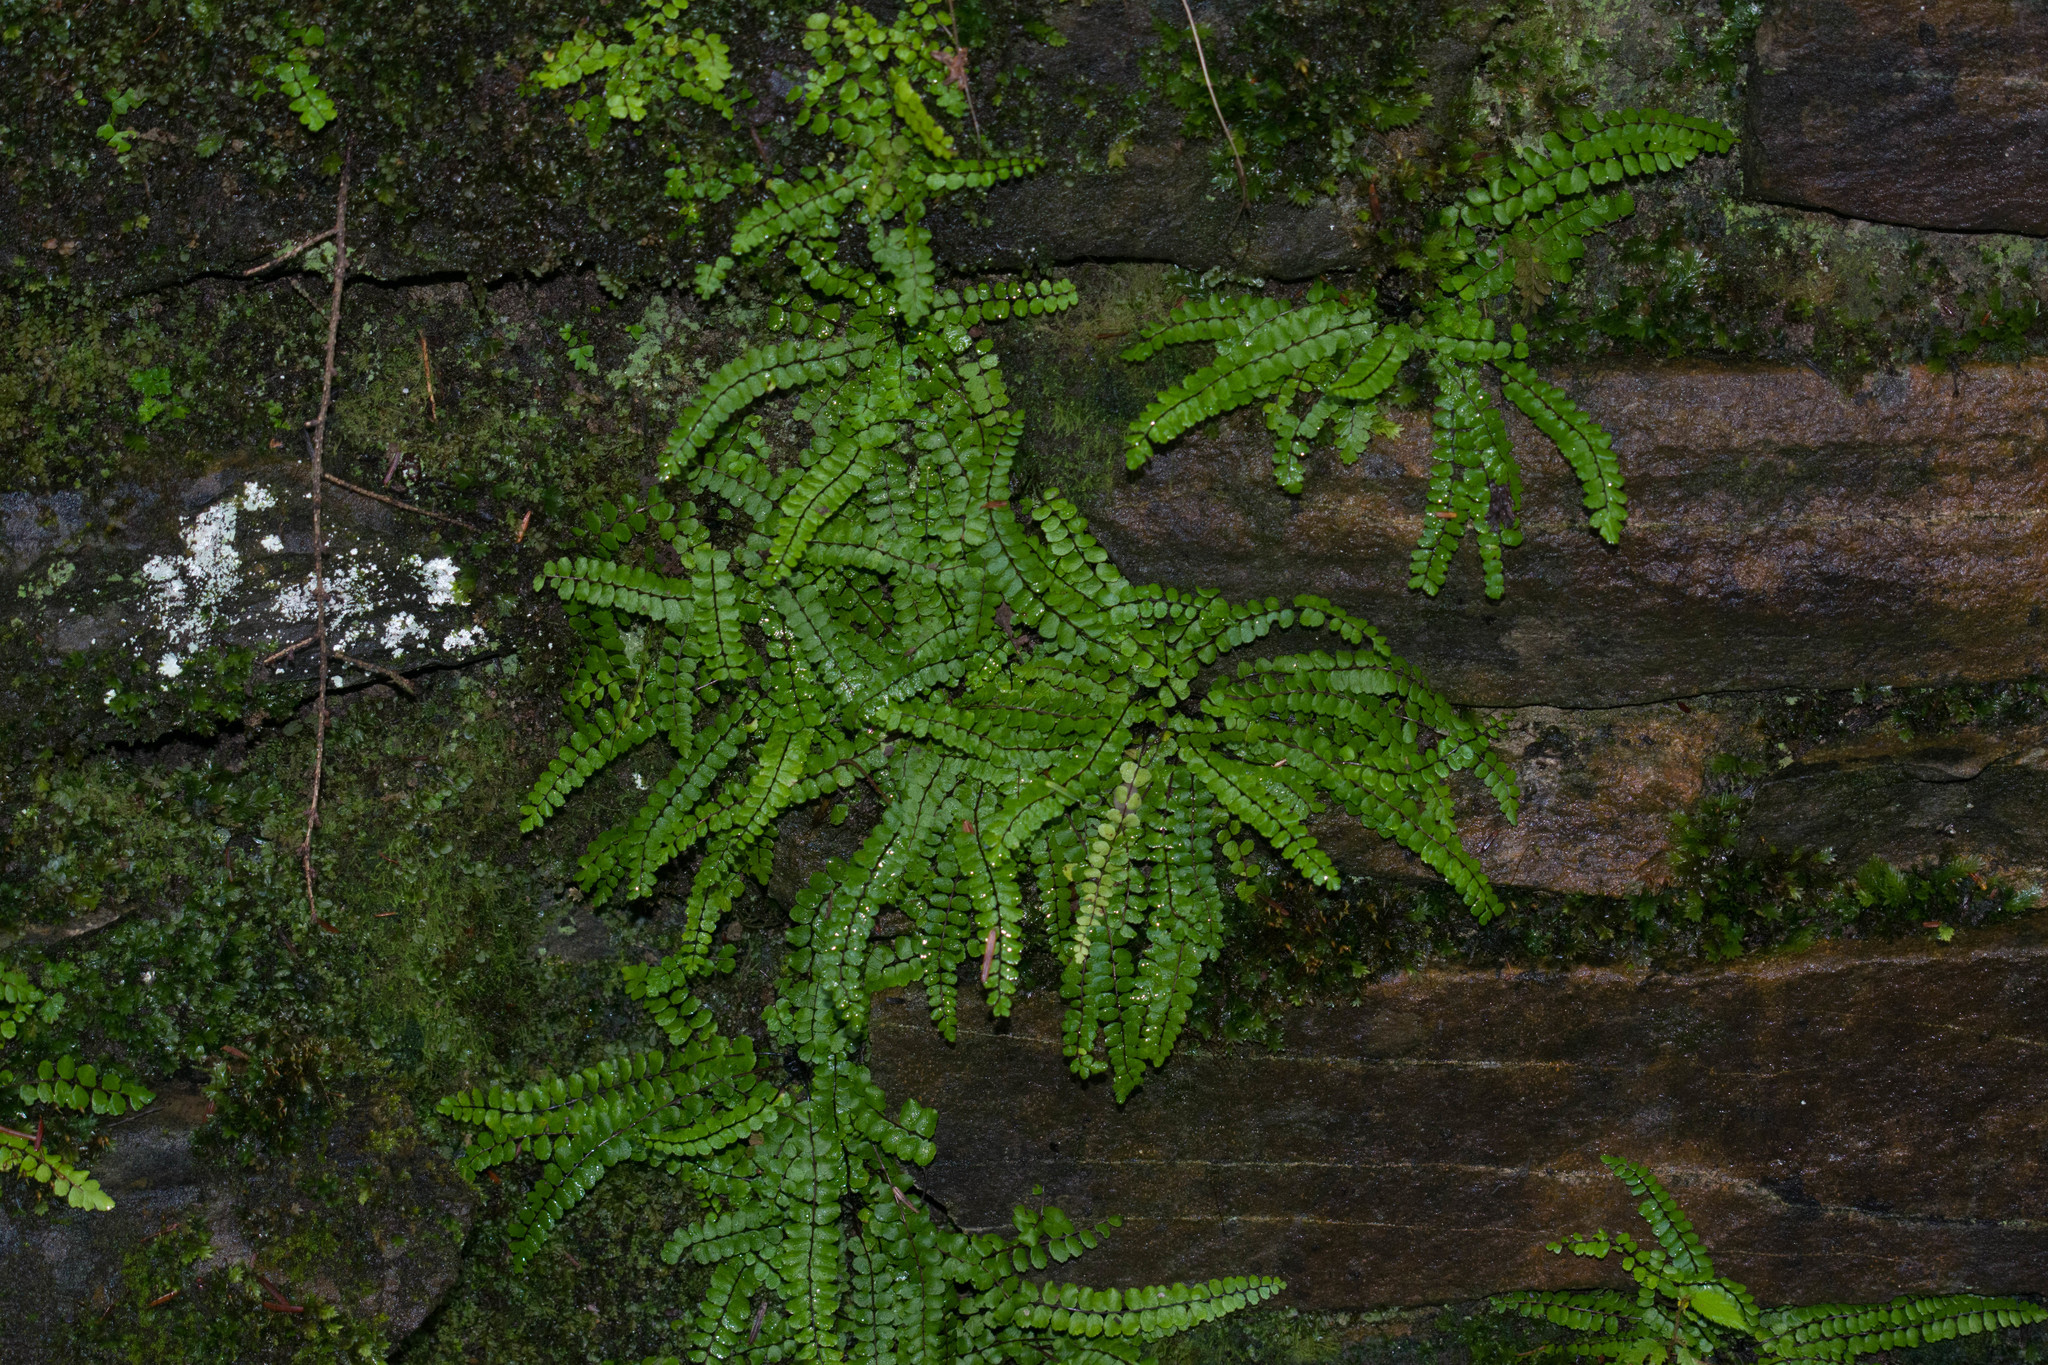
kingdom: Plantae
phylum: Tracheophyta
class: Polypodiopsida
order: Polypodiales
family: Aspleniaceae
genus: Asplenium
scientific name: Asplenium trichomanes
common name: Maidenhair spleenwort
